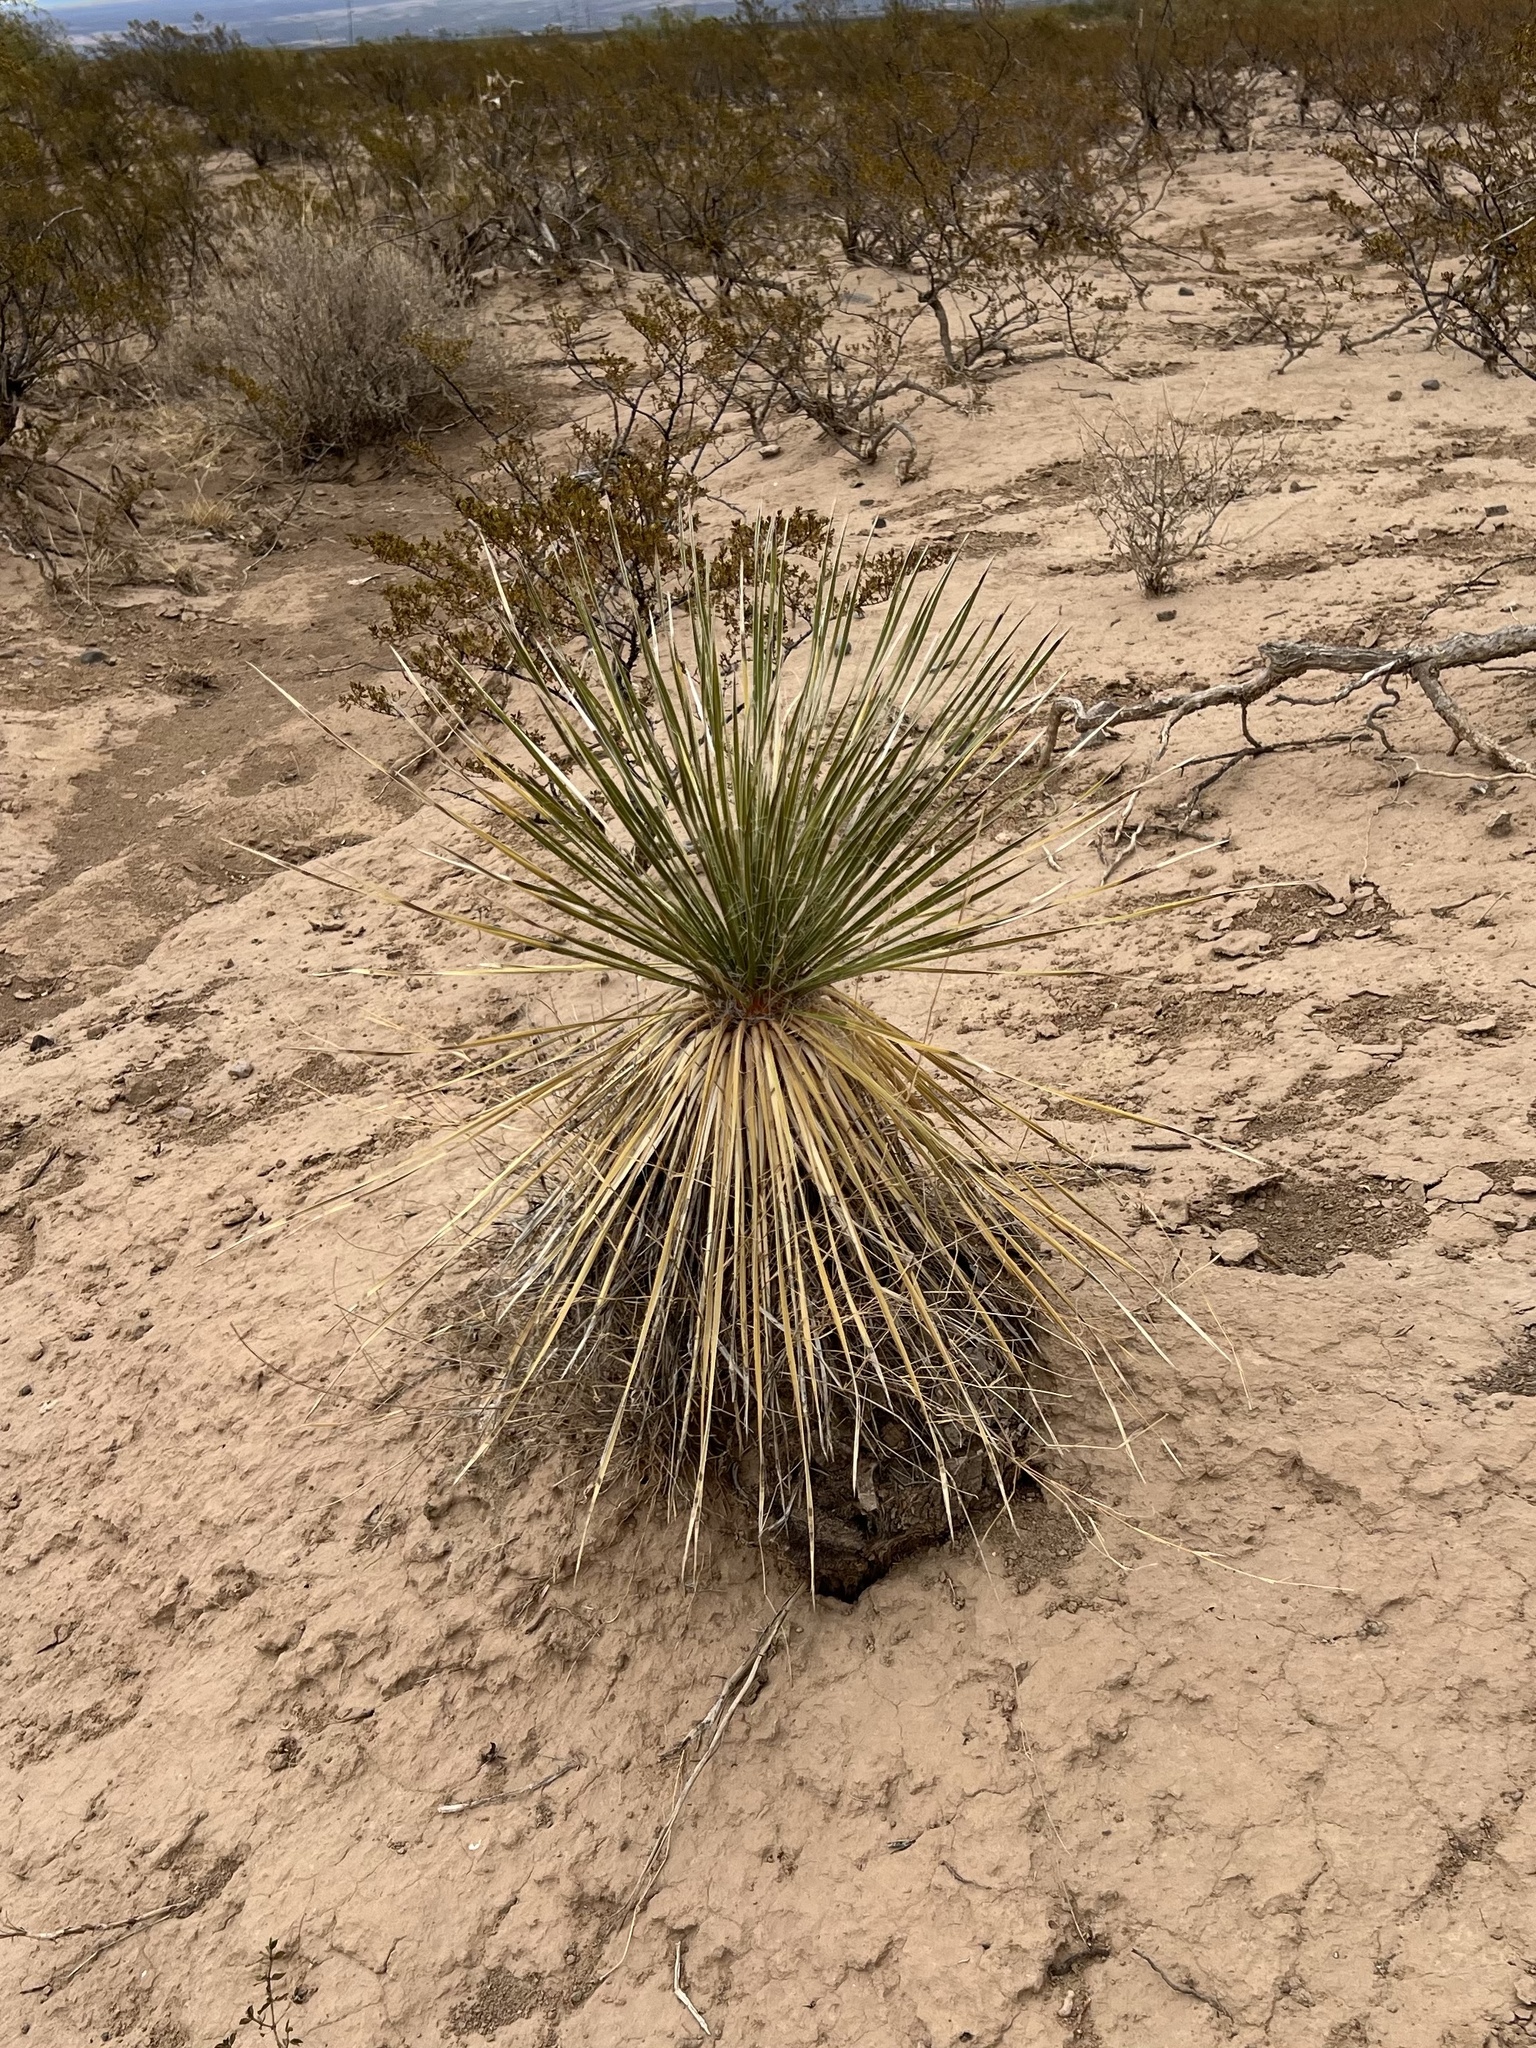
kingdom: Plantae
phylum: Tracheophyta
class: Liliopsida
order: Asparagales
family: Asparagaceae
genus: Yucca
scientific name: Yucca elata
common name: Palmella
